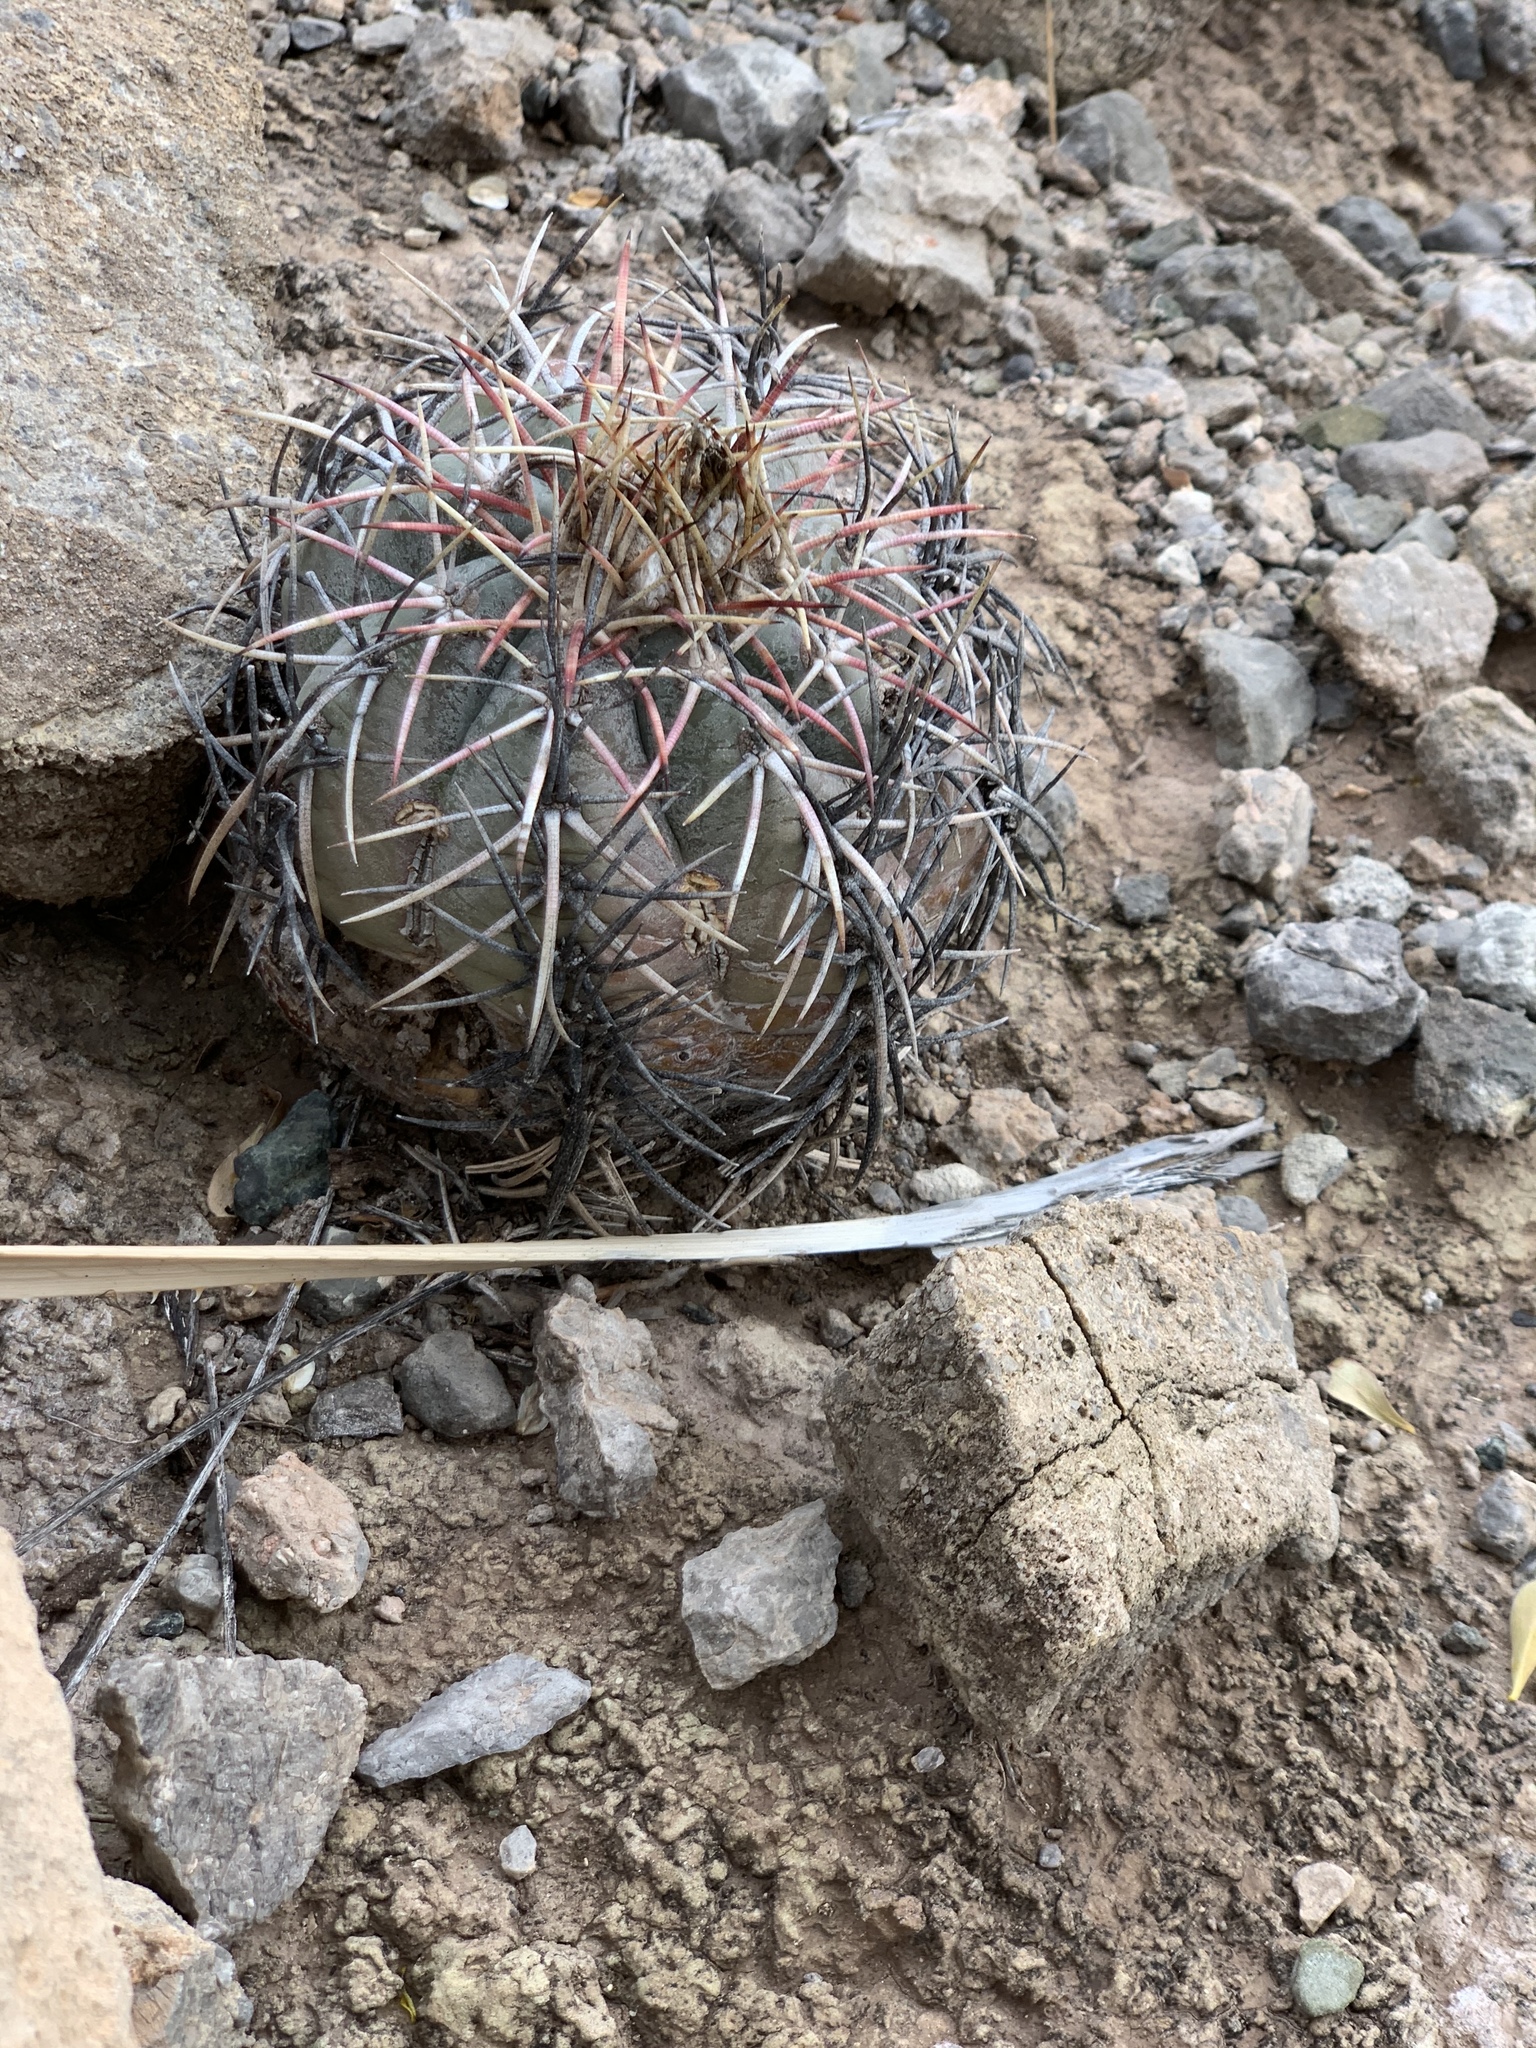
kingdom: Plantae
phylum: Tracheophyta
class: Magnoliopsida
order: Caryophyllales
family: Cactaceae
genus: Echinocactus
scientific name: Echinocactus horizonthalonius
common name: Devilshead
